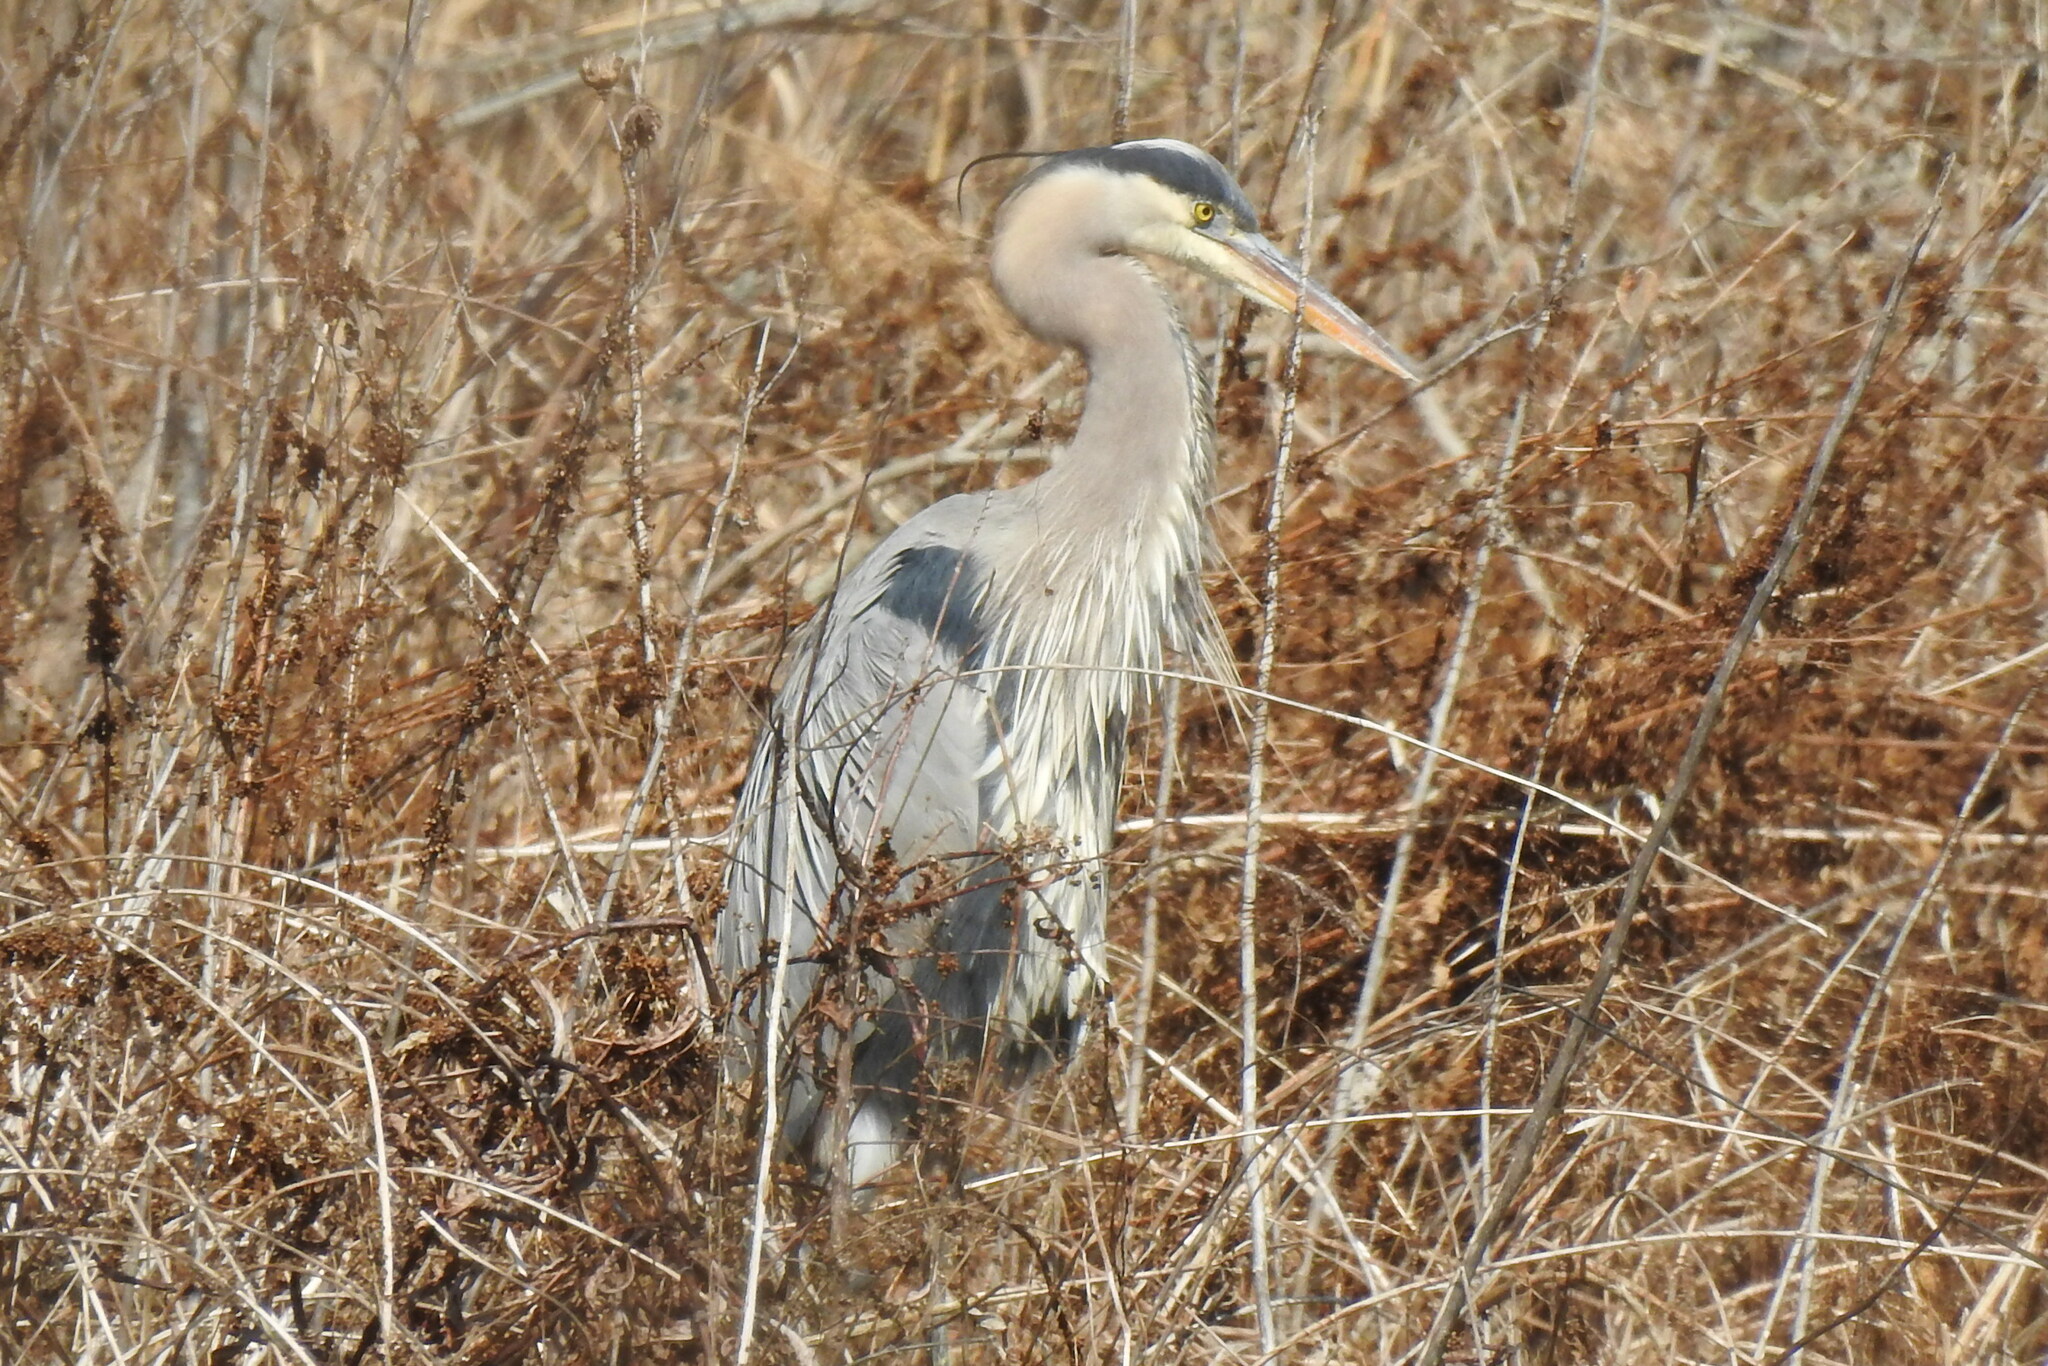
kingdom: Animalia
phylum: Chordata
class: Aves
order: Pelecaniformes
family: Ardeidae
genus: Ardea
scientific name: Ardea herodias
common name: Great blue heron
